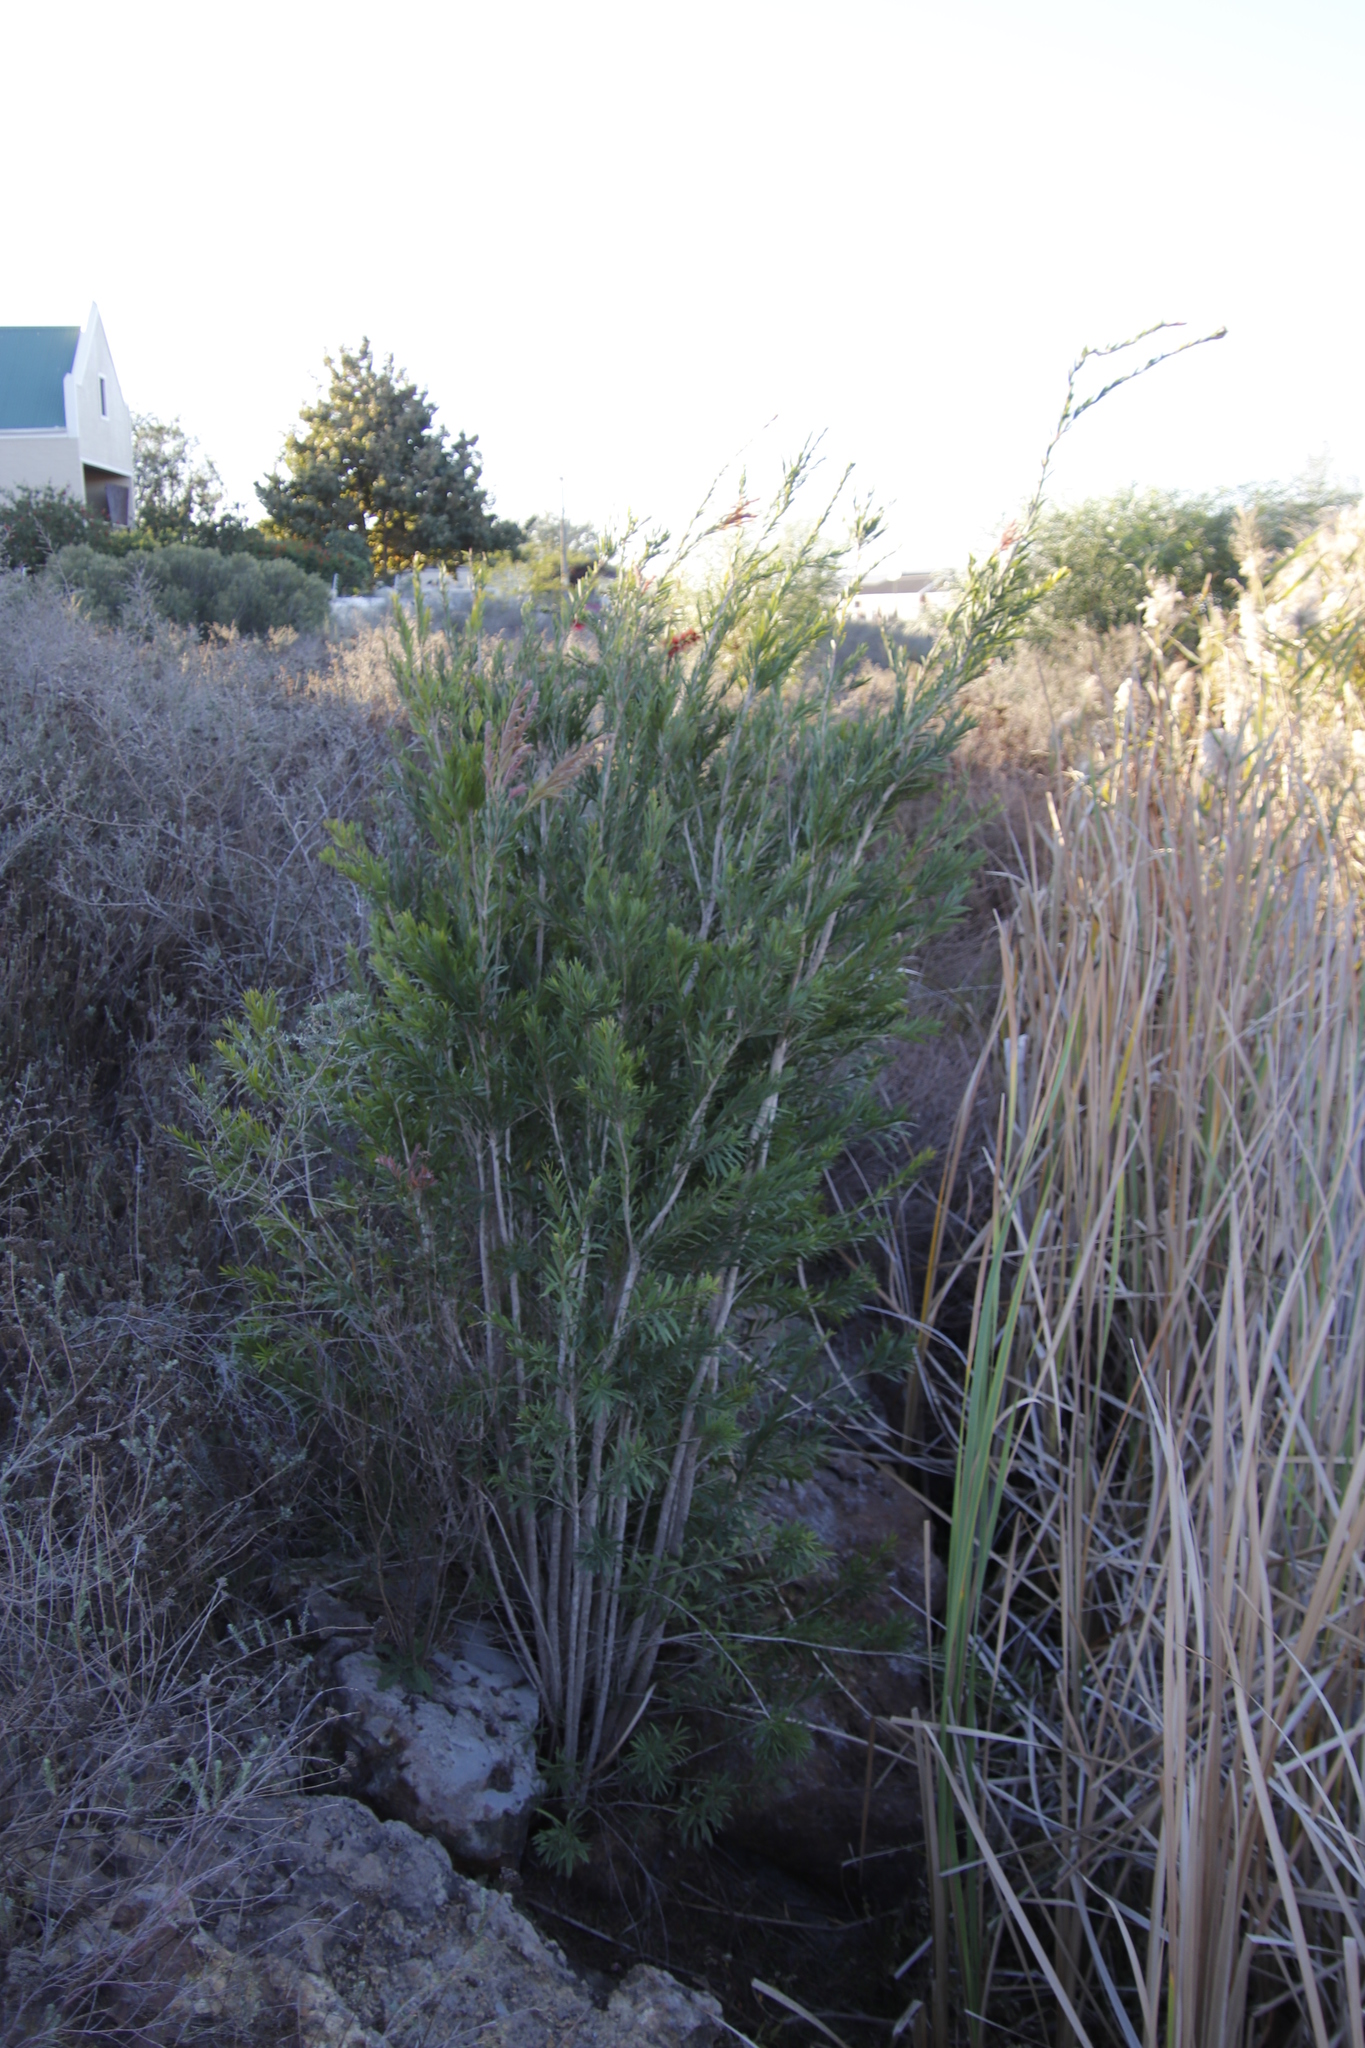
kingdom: Plantae
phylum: Tracheophyta
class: Magnoliopsida
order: Myrtales
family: Myrtaceae
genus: Callistemon
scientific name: Callistemon viminalis
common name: Drooping bottlebrush
